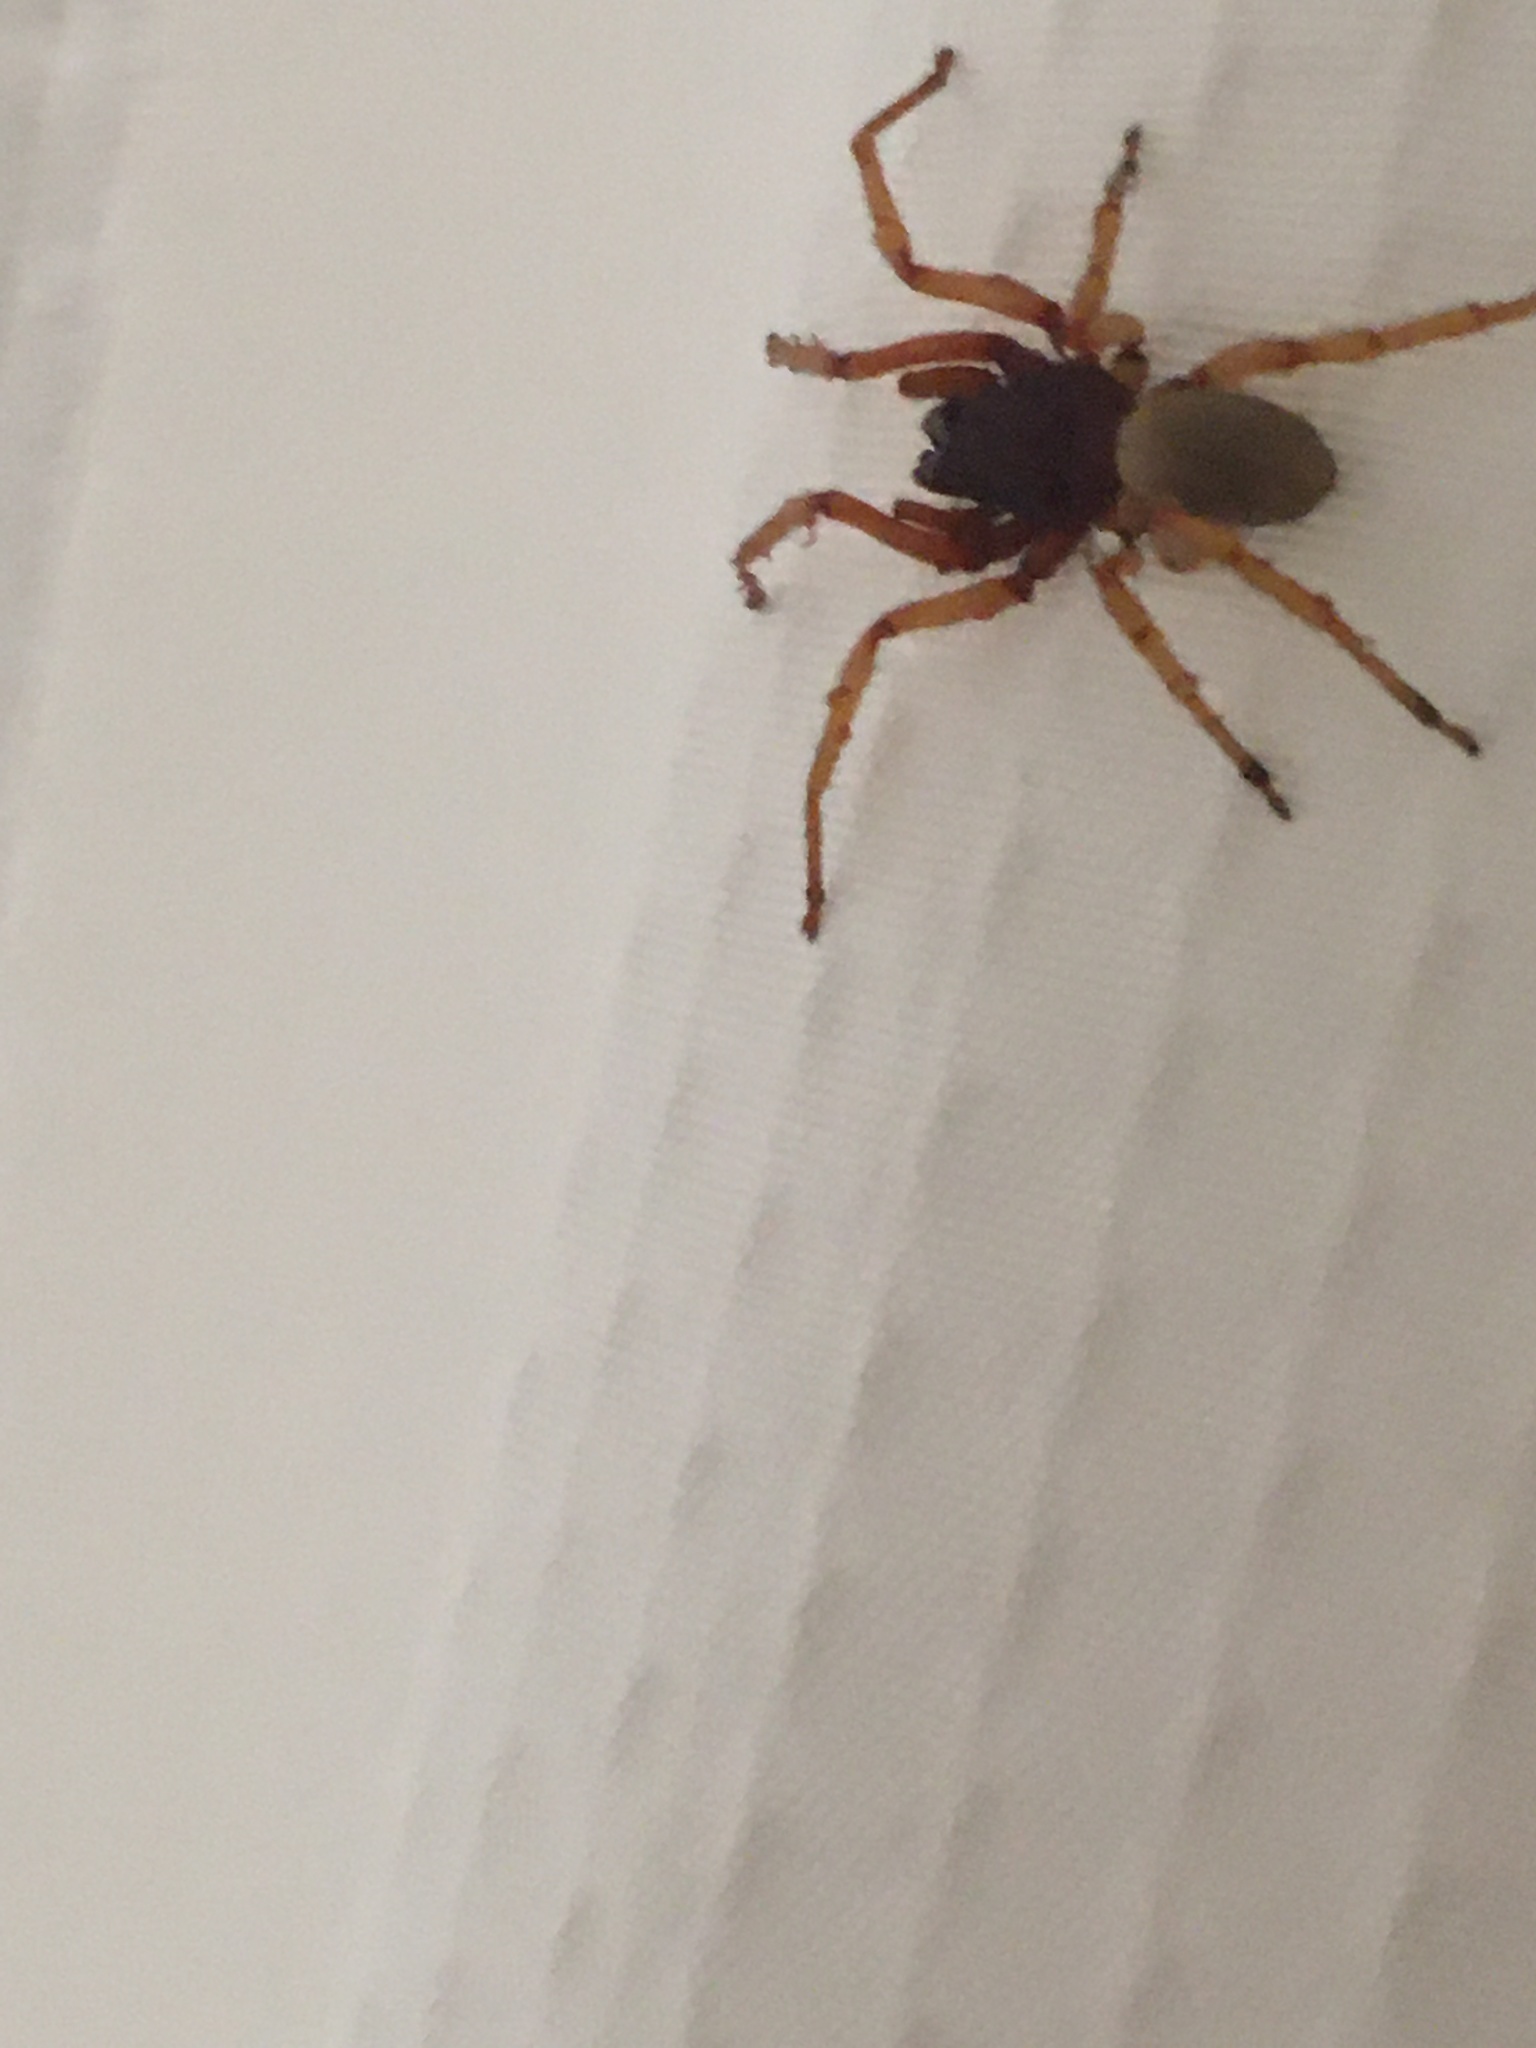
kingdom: Animalia
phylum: Arthropoda
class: Arachnida
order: Araneae
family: Dysderidae
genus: Dysdera
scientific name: Dysdera crocata
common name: Woodlouse spider
